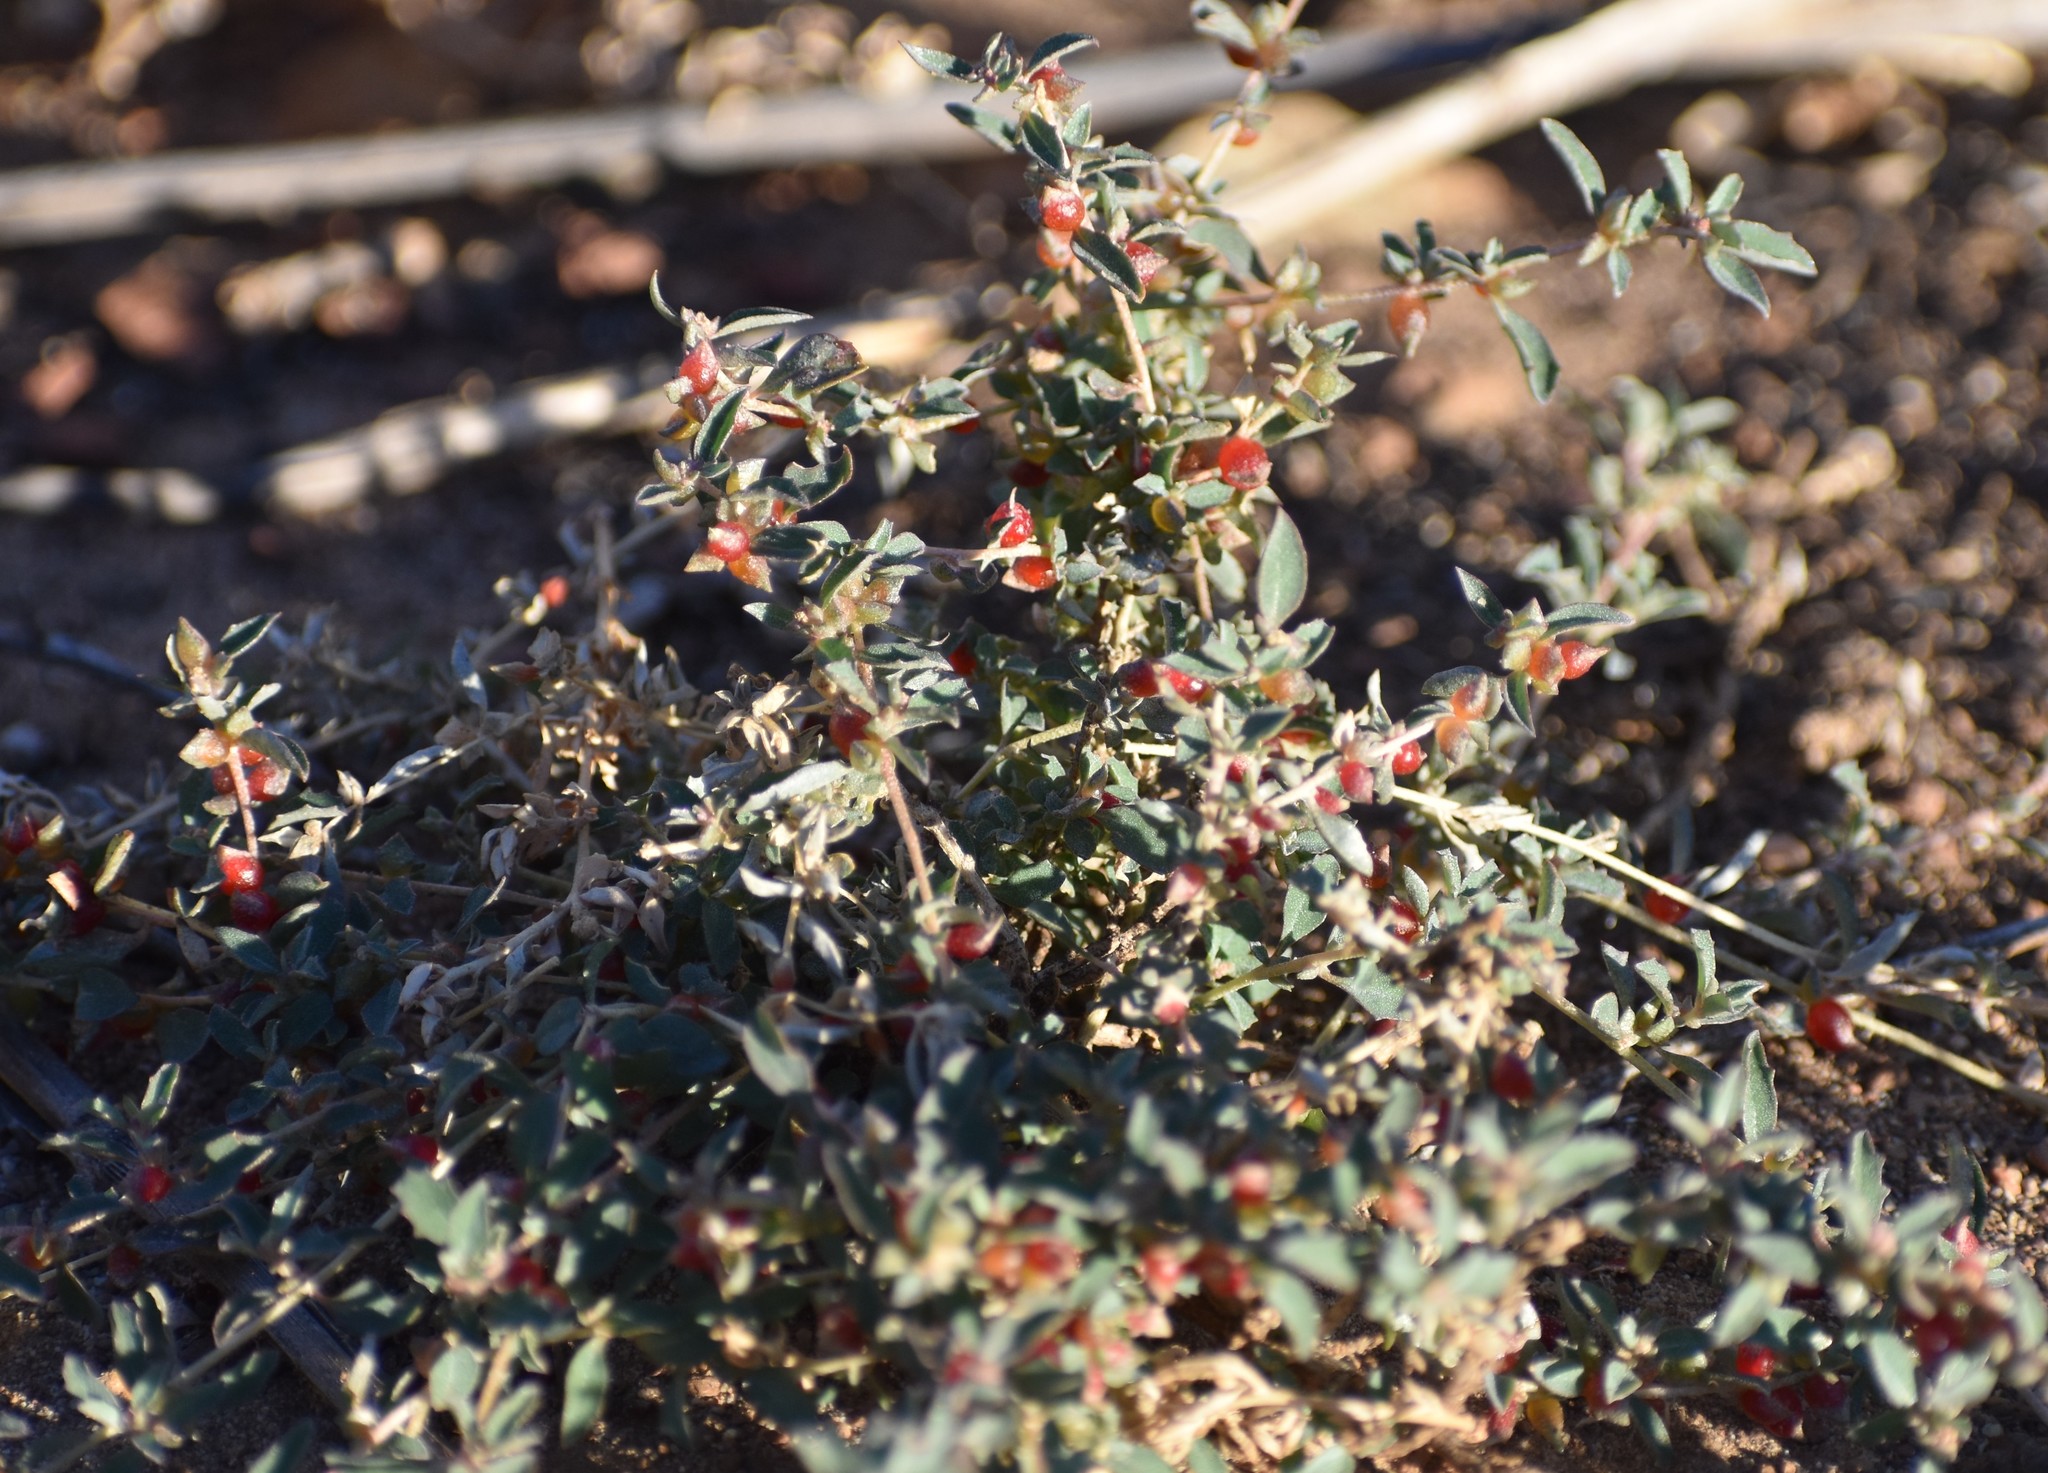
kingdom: Plantae
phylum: Tracheophyta
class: Magnoliopsida
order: Caryophyllales
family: Amaranthaceae
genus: Atriplex
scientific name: Atriplex semibaccata
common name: Australian saltbush
